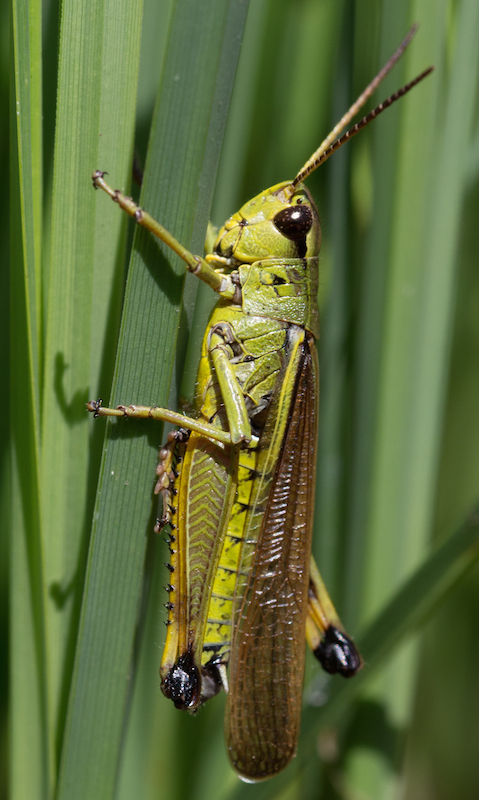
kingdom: Animalia
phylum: Arthropoda
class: Insecta
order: Orthoptera
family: Acrididae
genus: Stethophyma
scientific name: Stethophyma grossum
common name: Large marsh grasshopper
